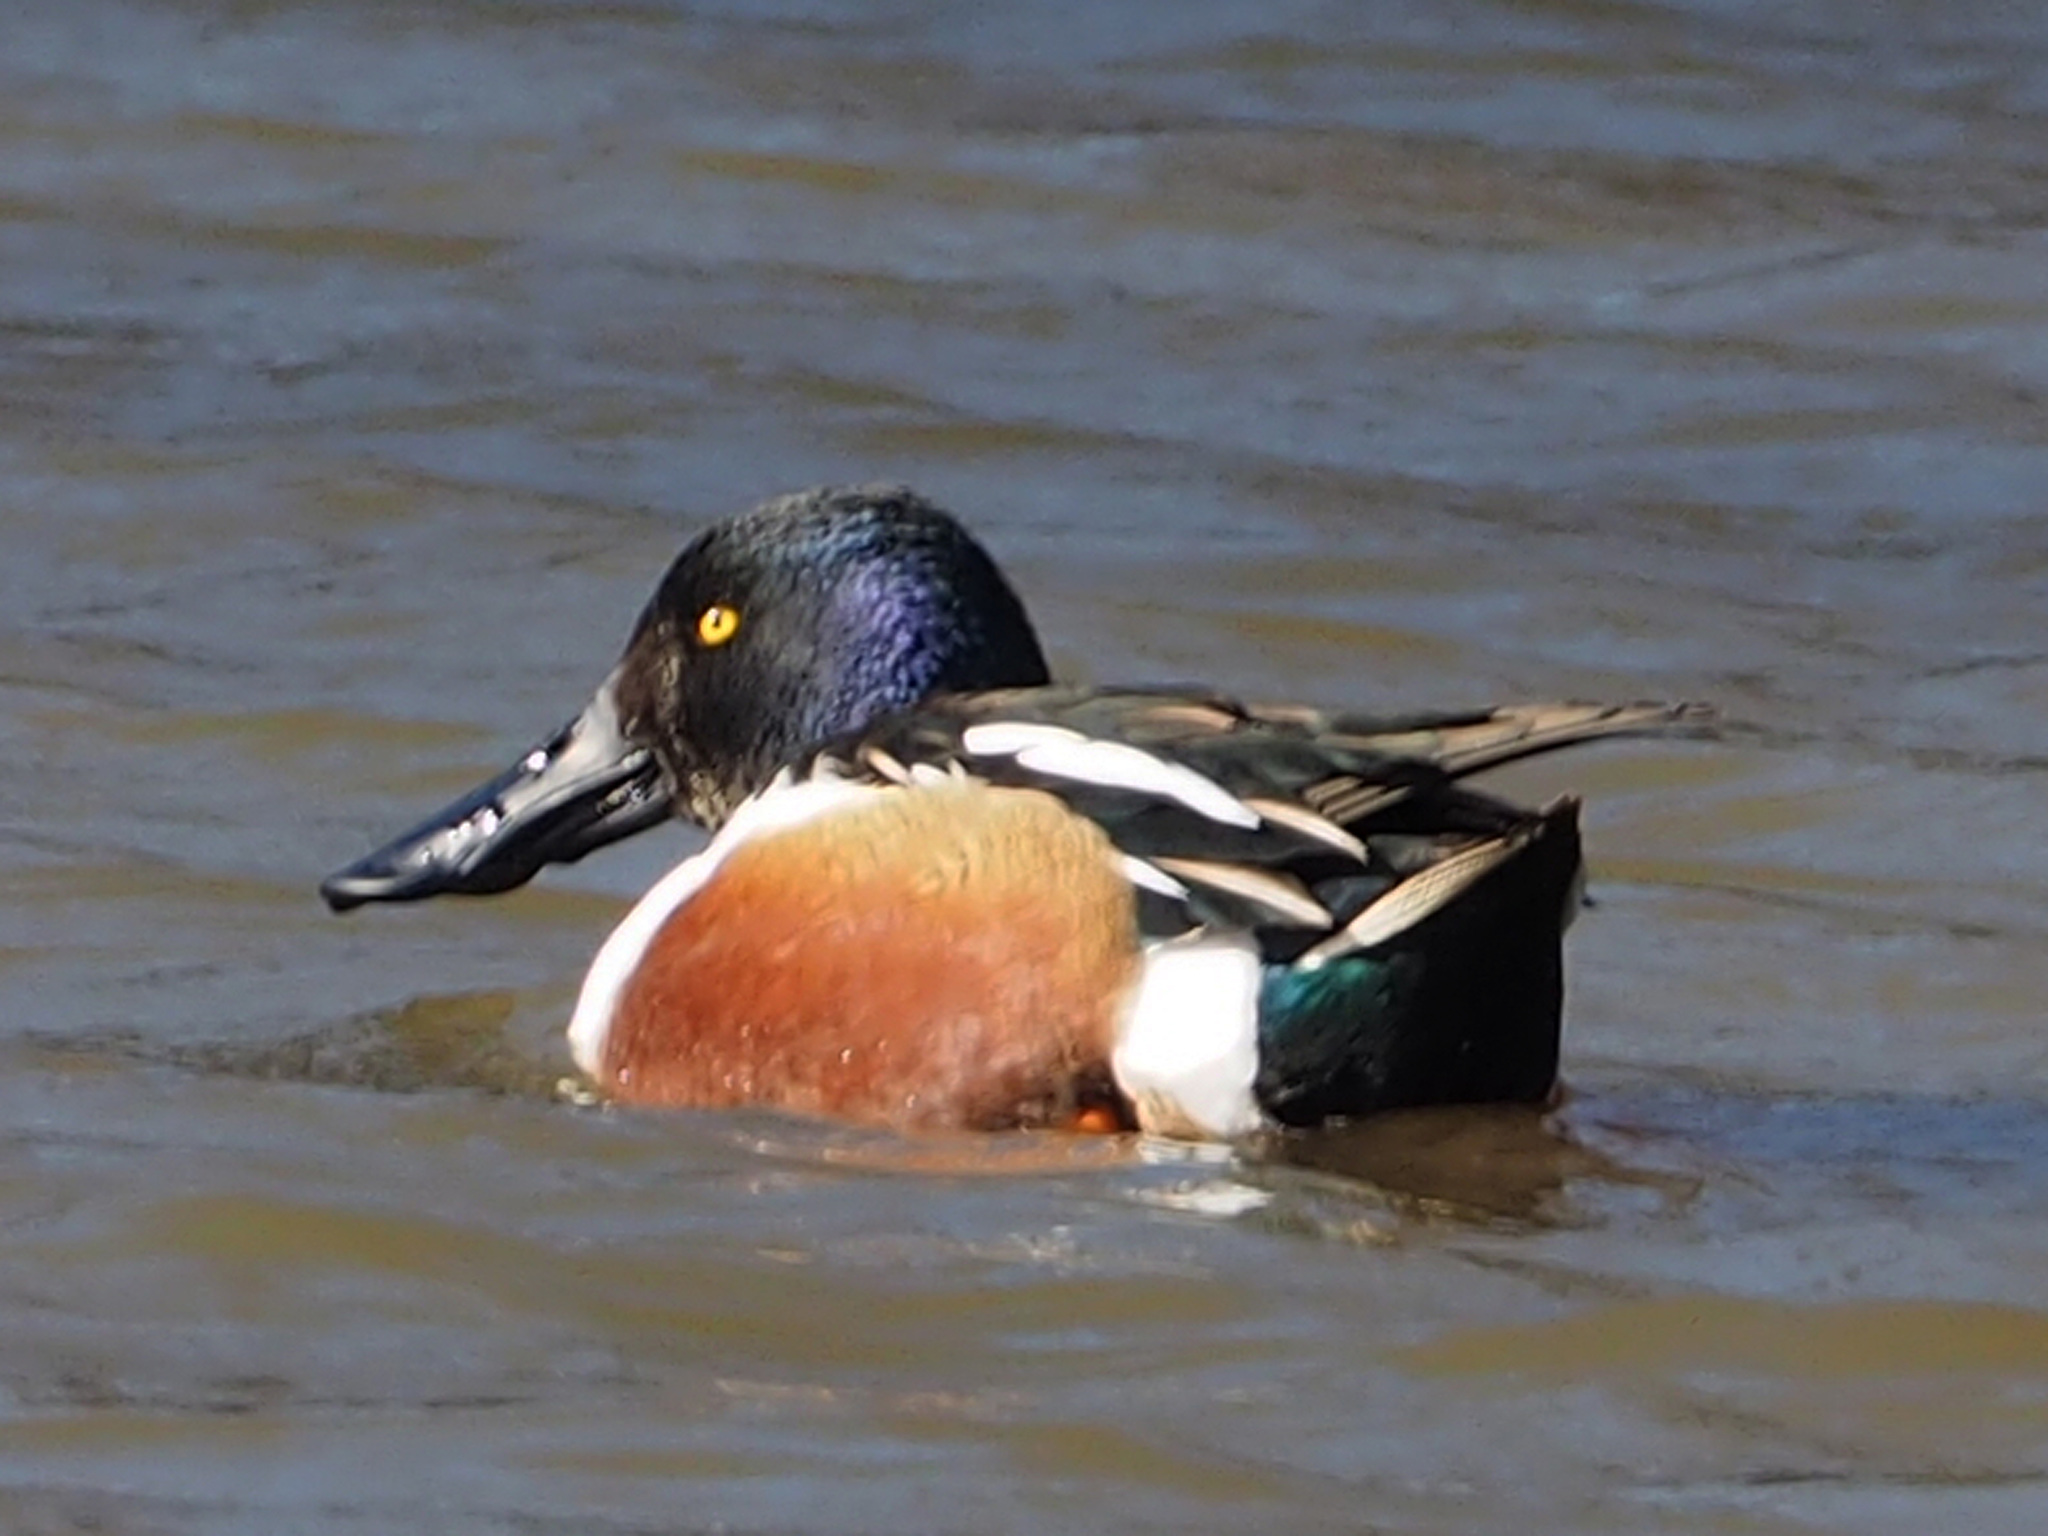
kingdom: Animalia
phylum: Chordata
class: Aves
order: Anseriformes
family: Anatidae
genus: Spatula
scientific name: Spatula clypeata
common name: Northern shoveler
